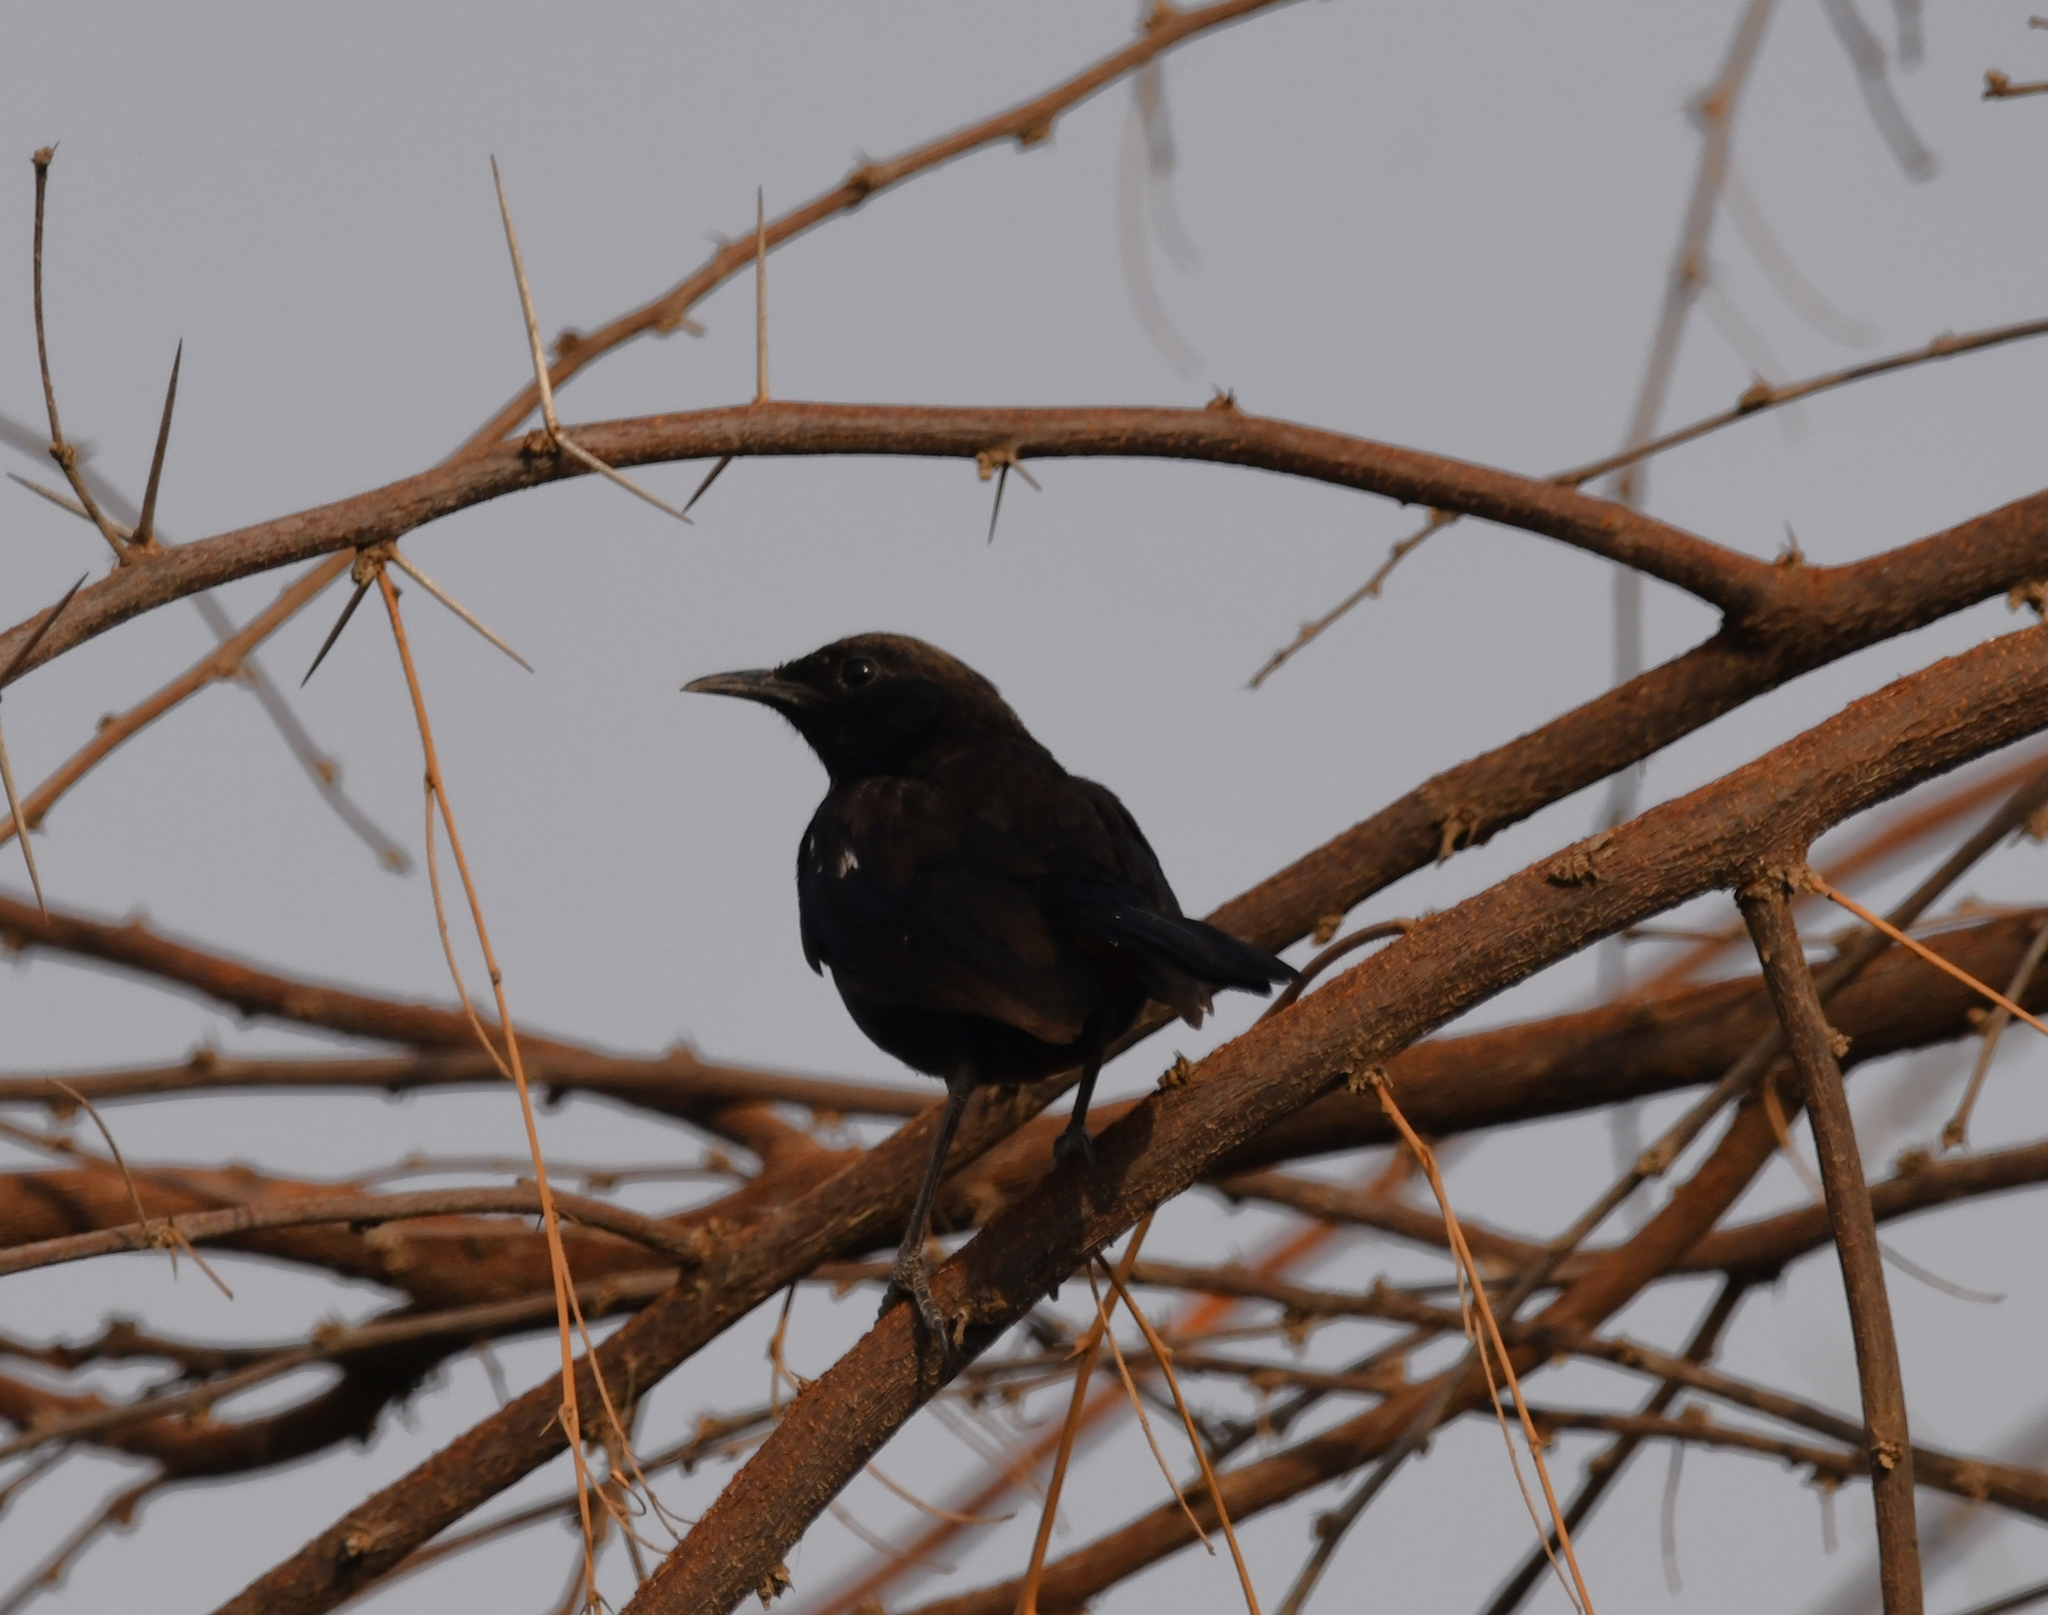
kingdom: Animalia
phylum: Chordata
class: Aves
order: Passeriformes
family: Muscicapidae
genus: Saxicoloides
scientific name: Saxicoloides fulicatus
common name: Indian robin
